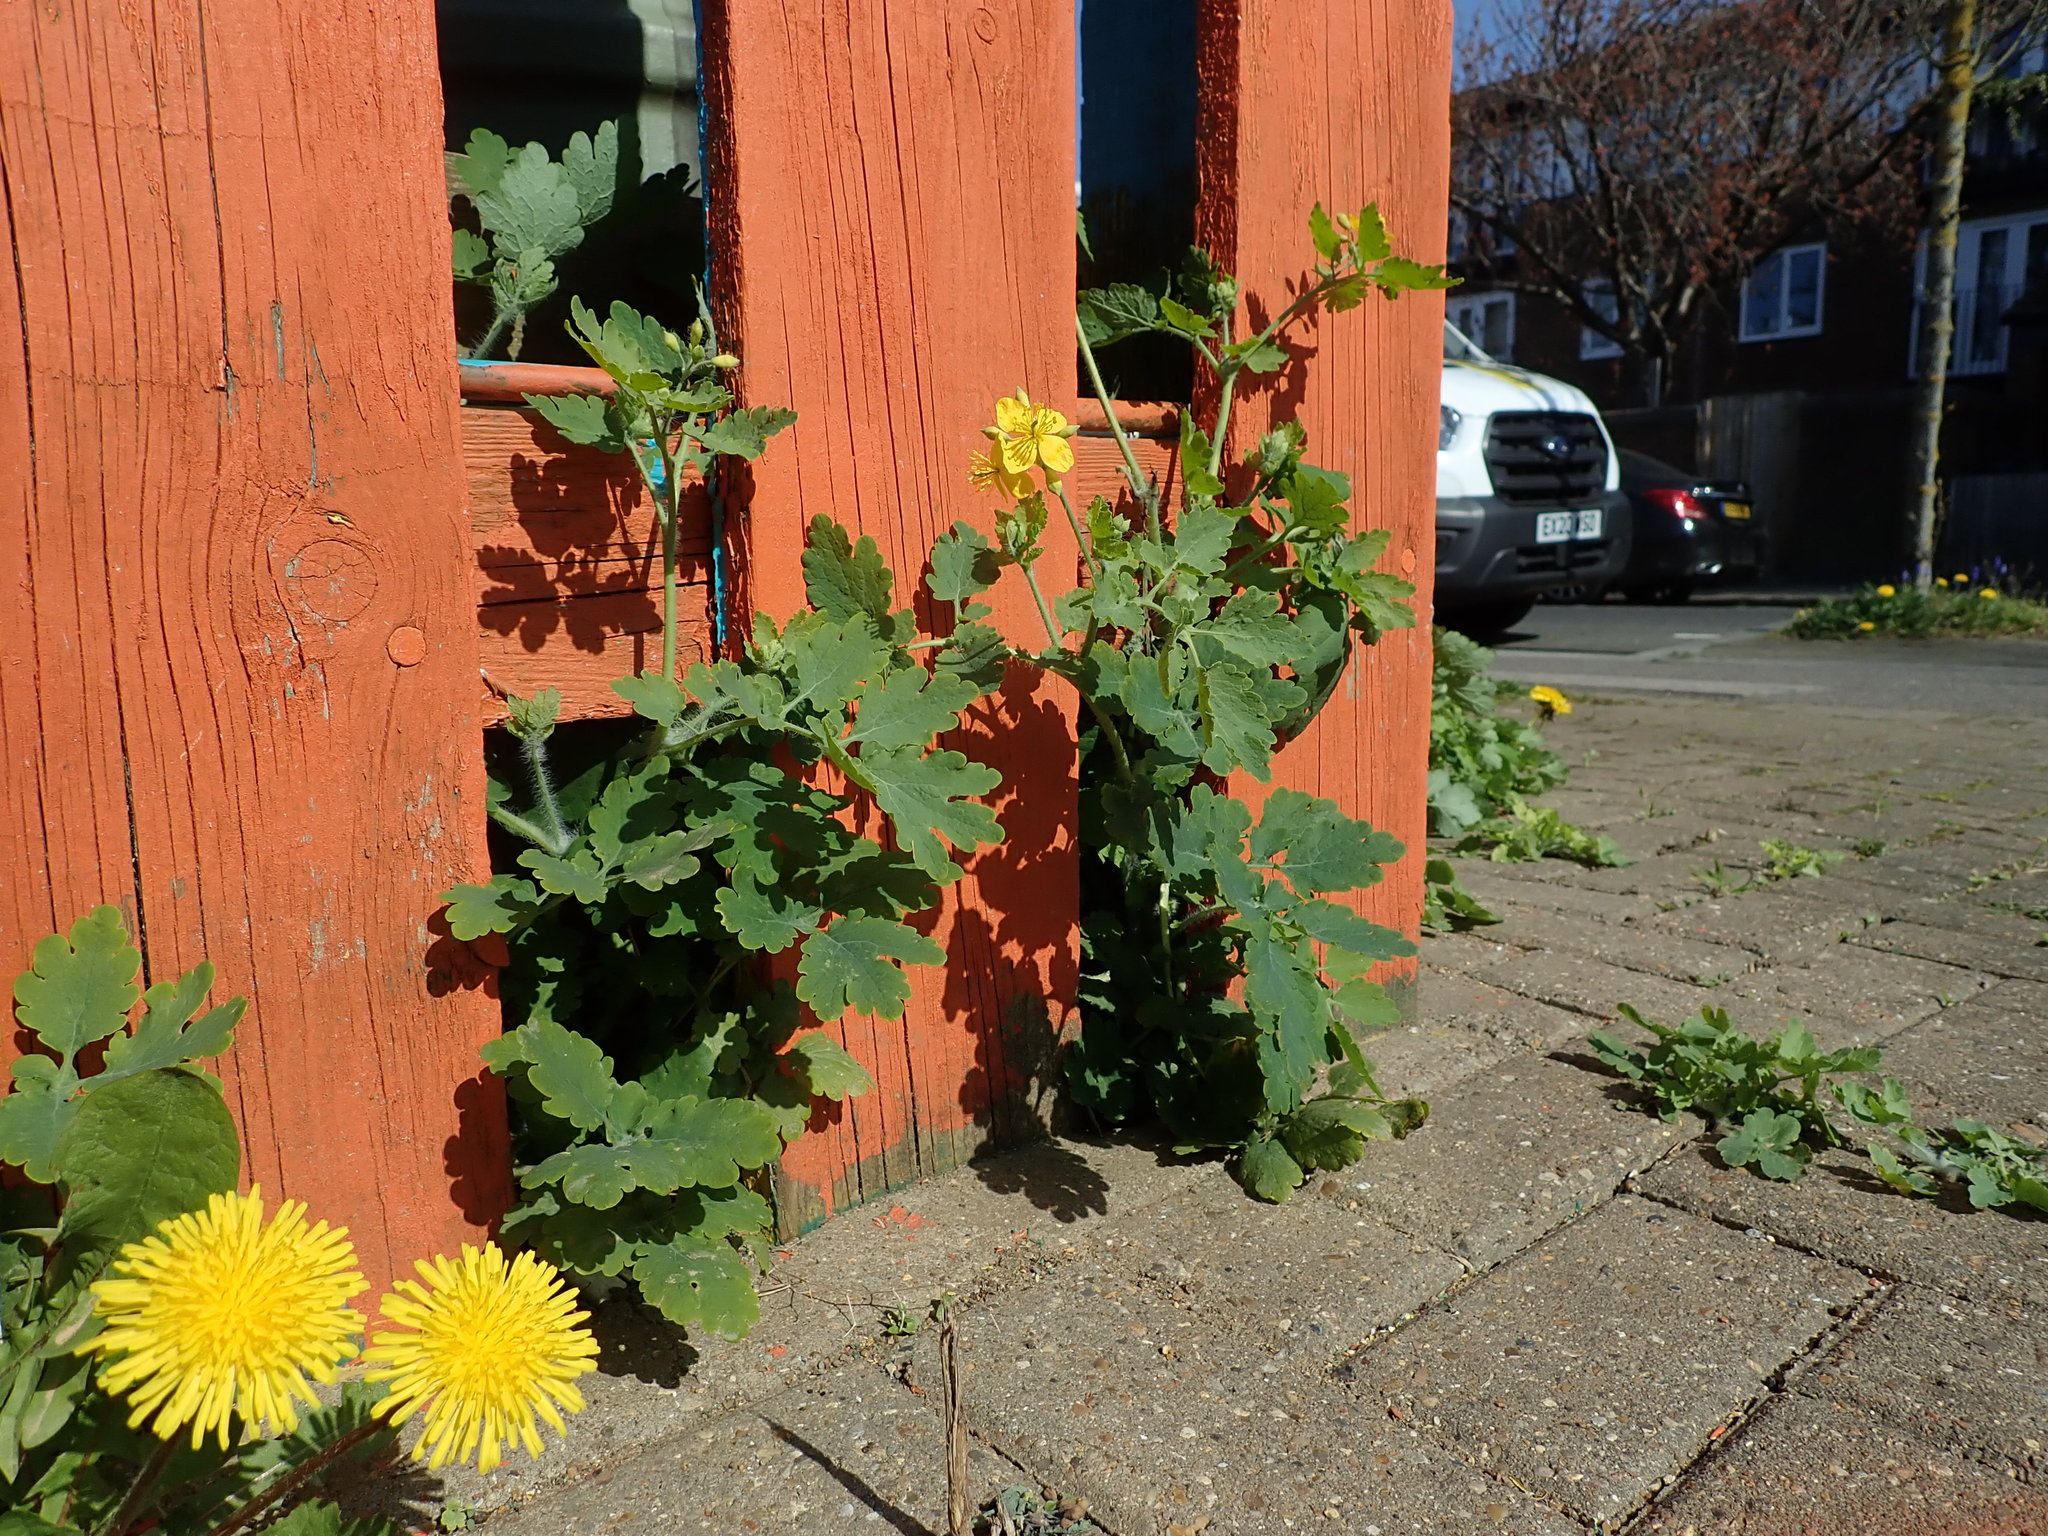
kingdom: Plantae
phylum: Tracheophyta
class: Magnoliopsida
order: Ranunculales
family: Papaveraceae
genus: Chelidonium
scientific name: Chelidonium majus
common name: Greater celandine
